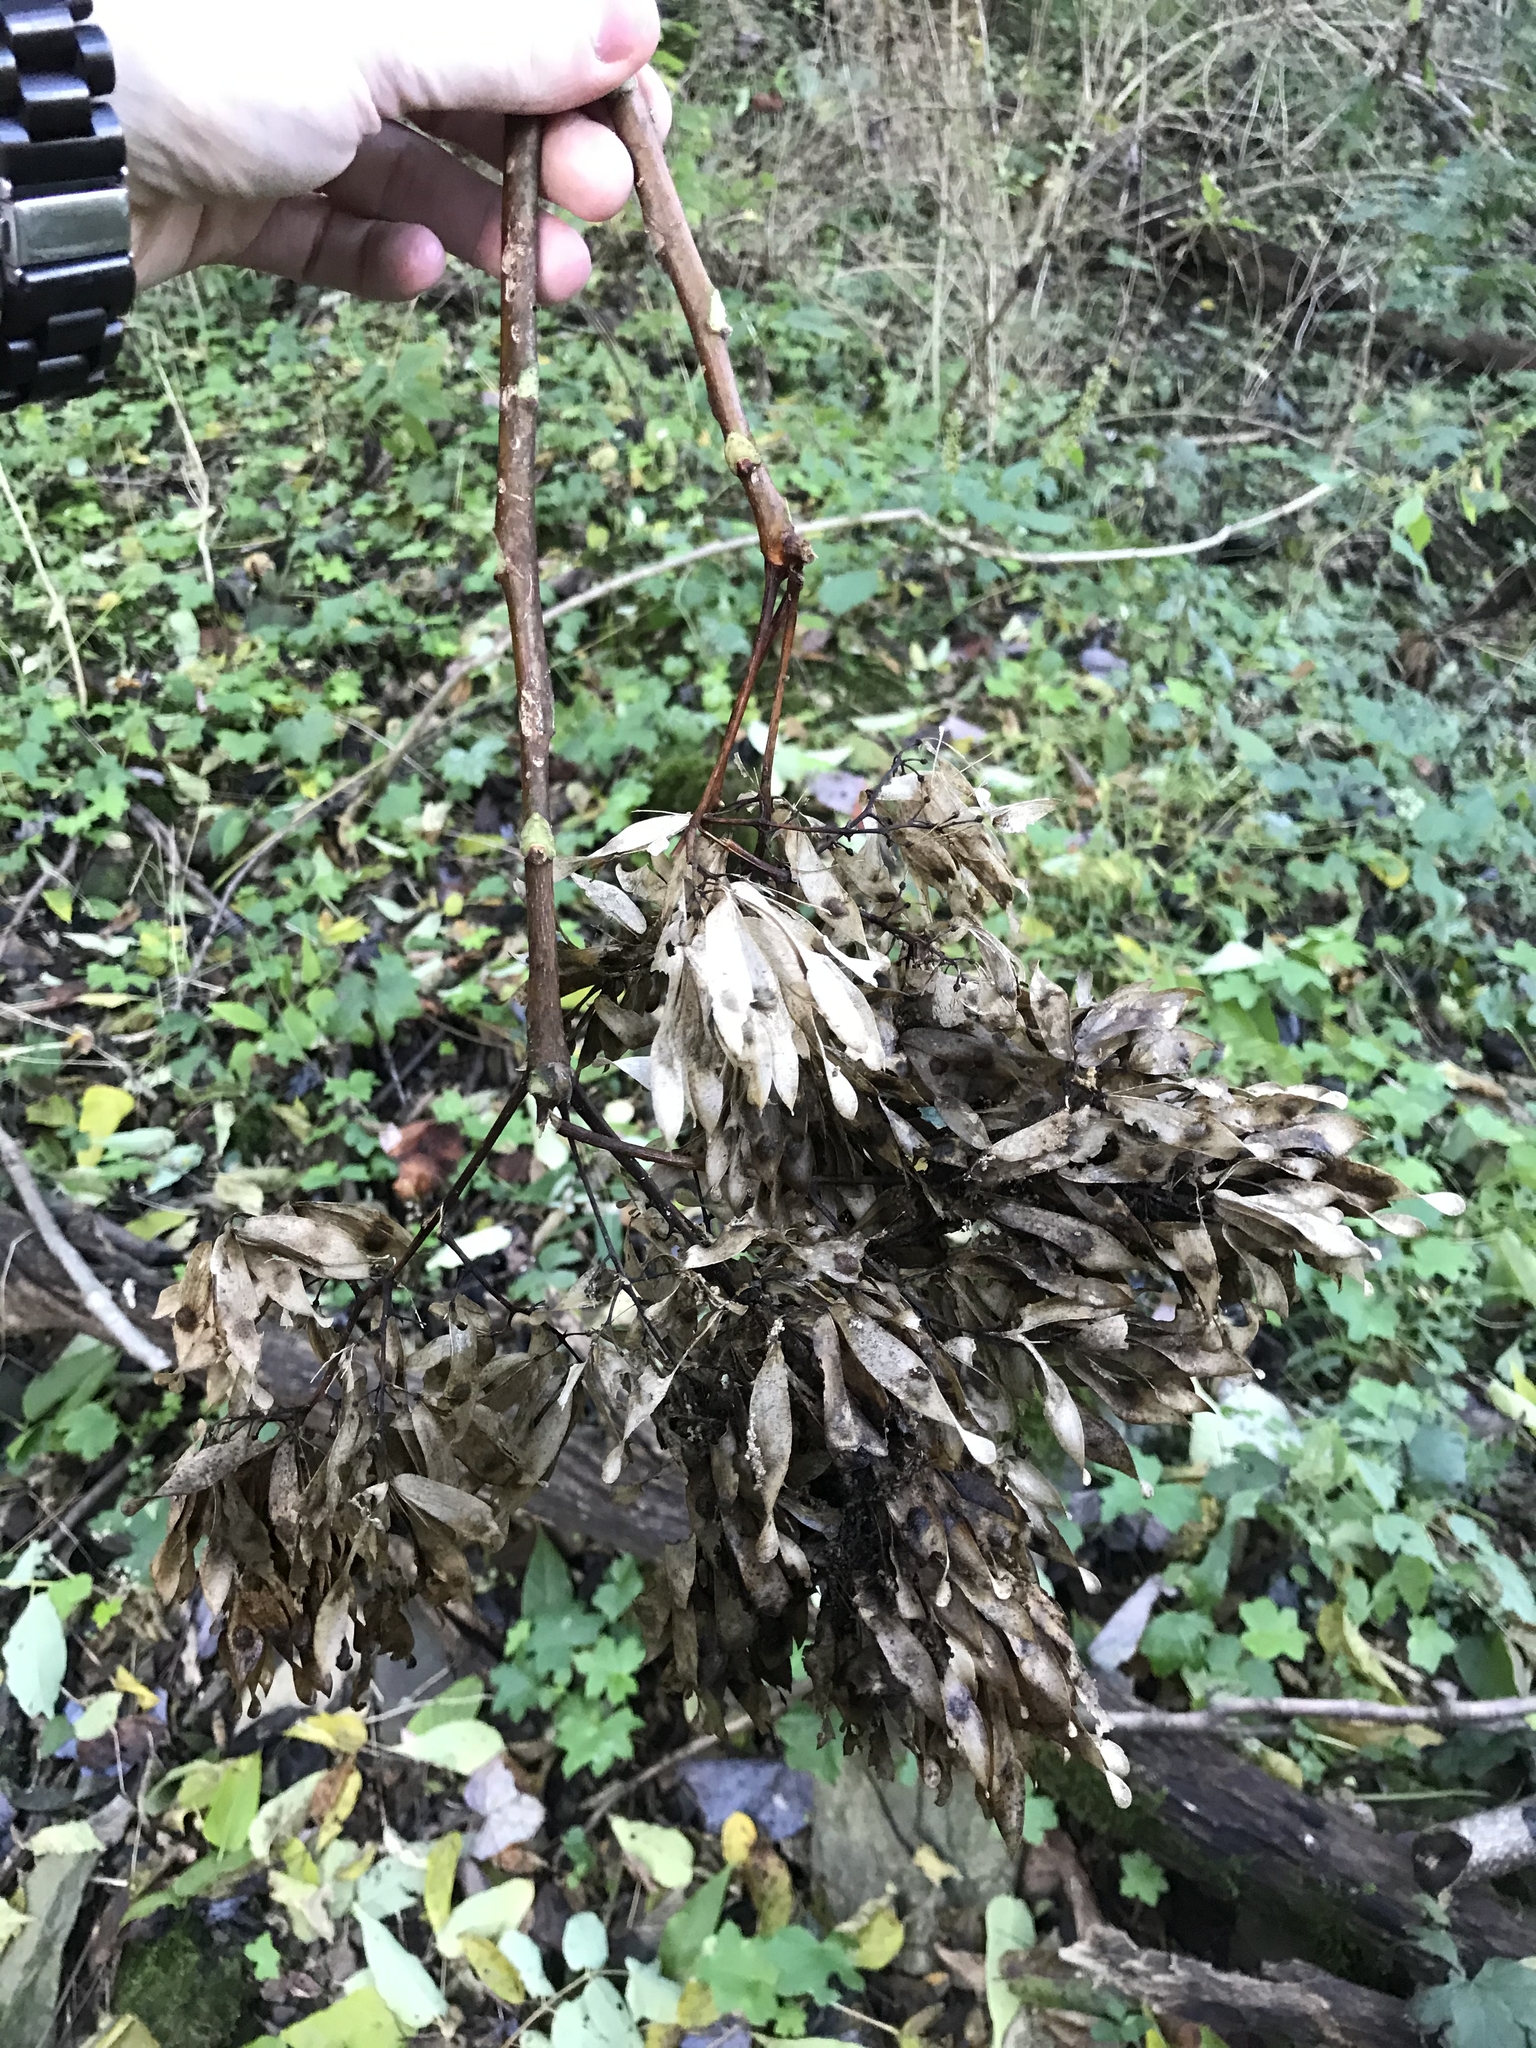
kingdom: Plantae
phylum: Tracheophyta
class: Magnoliopsida
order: Sapindales
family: Simaroubaceae
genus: Ailanthus
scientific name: Ailanthus altissima
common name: Tree-of-heaven
